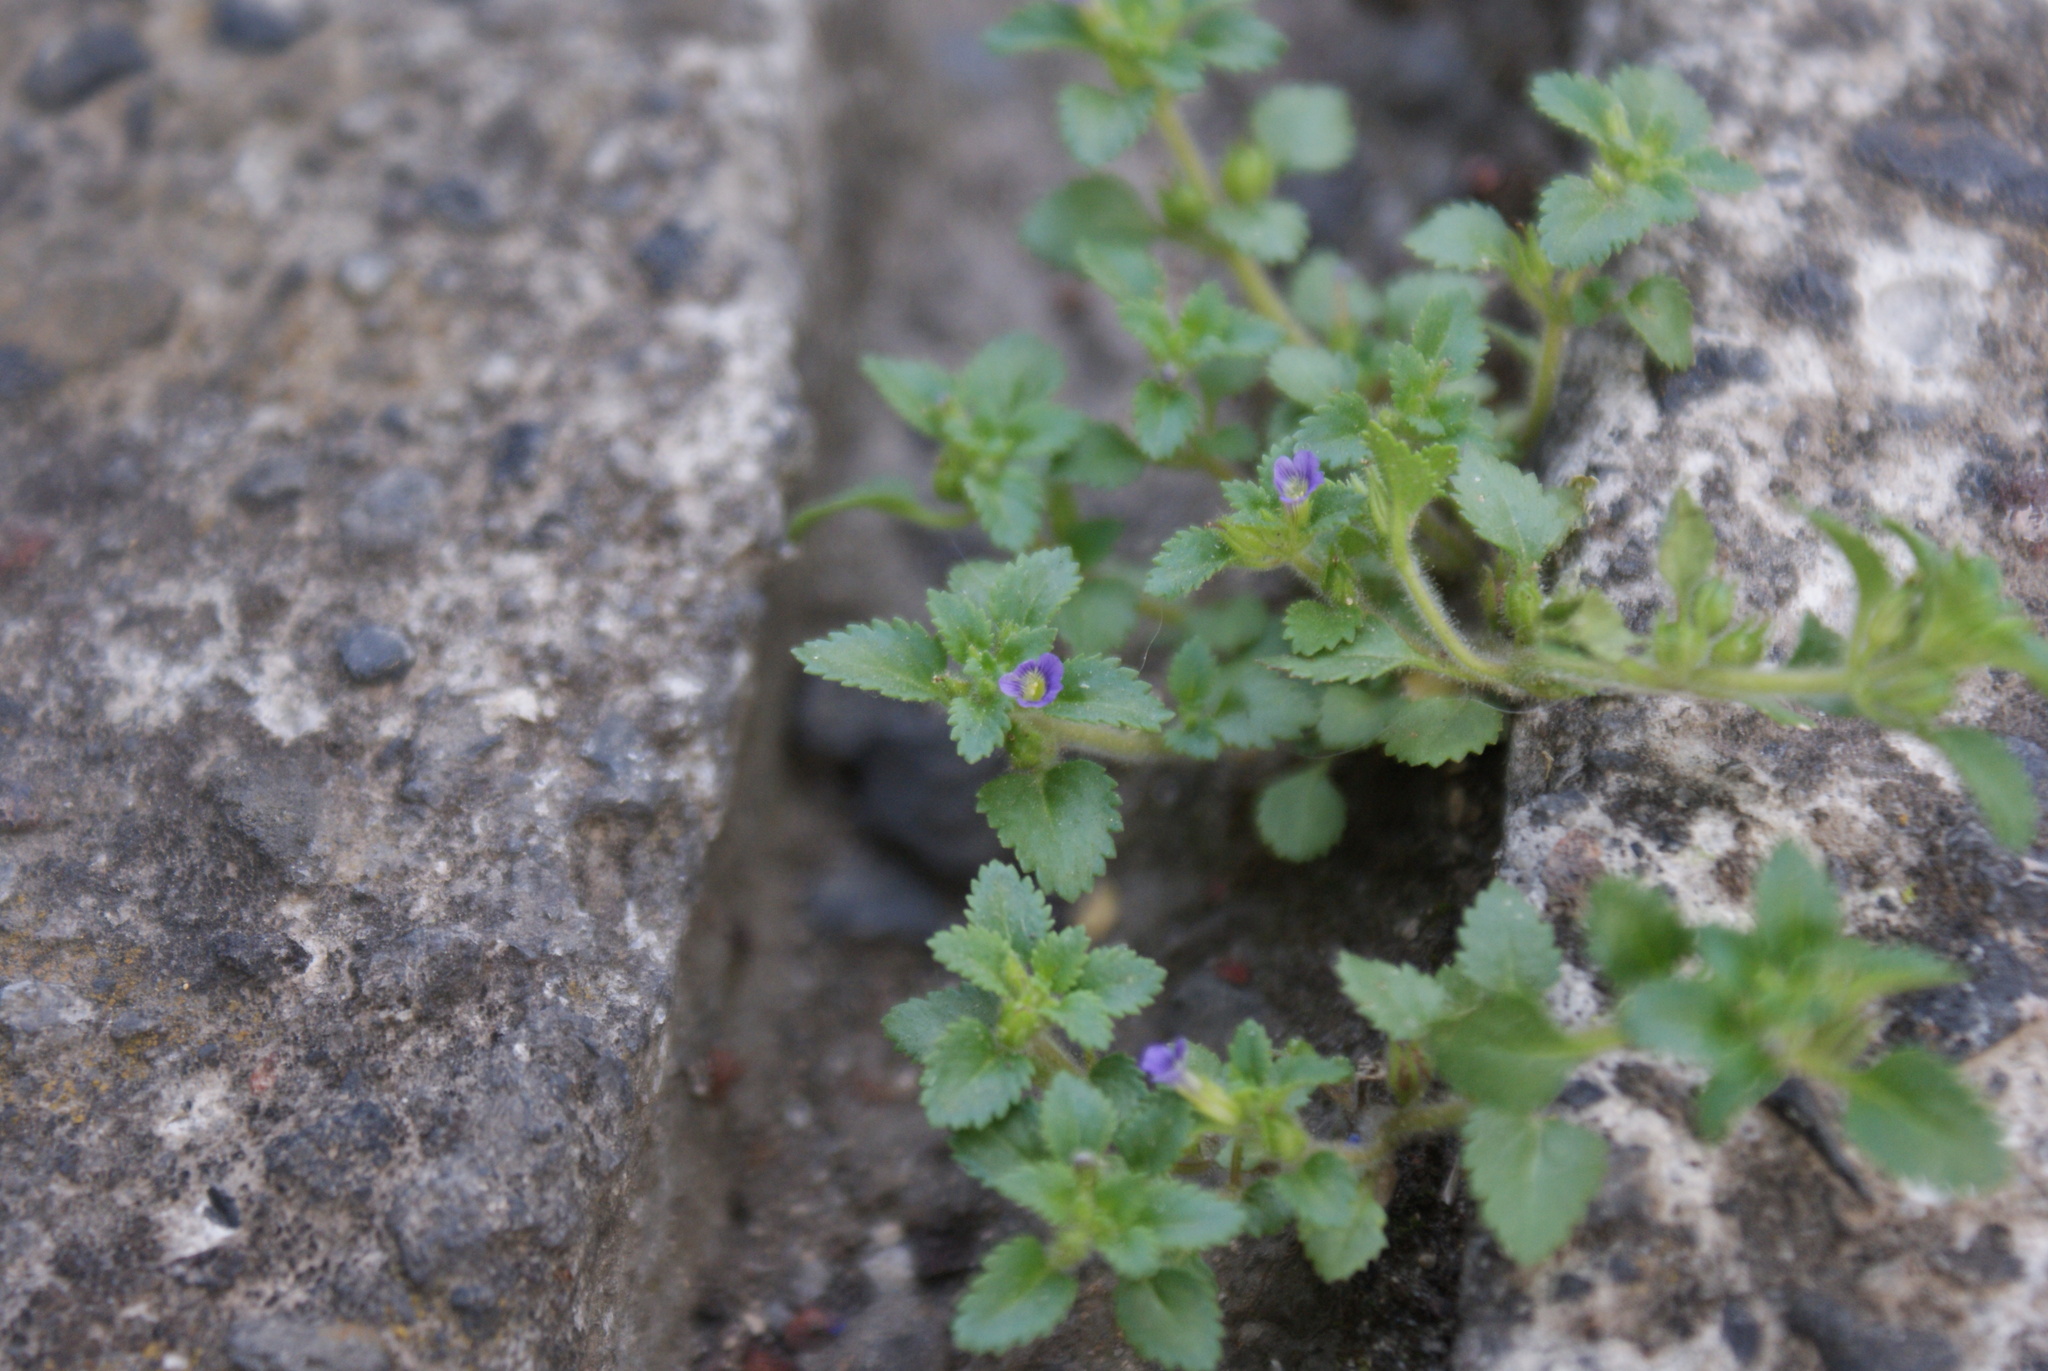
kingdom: Plantae
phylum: Tracheophyta
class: Magnoliopsida
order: Lamiales
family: Plantaginaceae
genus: Stemodia
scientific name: Stemodia verticillata
